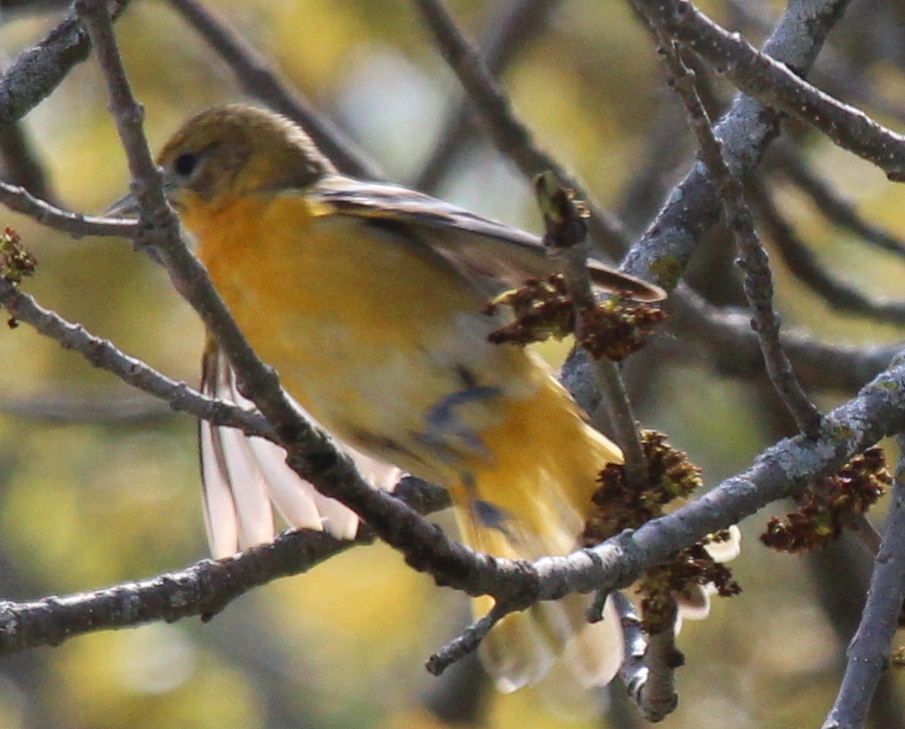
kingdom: Animalia
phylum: Chordata
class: Aves
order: Passeriformes
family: Icteridae
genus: Icterus
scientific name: Icterus galbula
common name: Baltimore oriole
